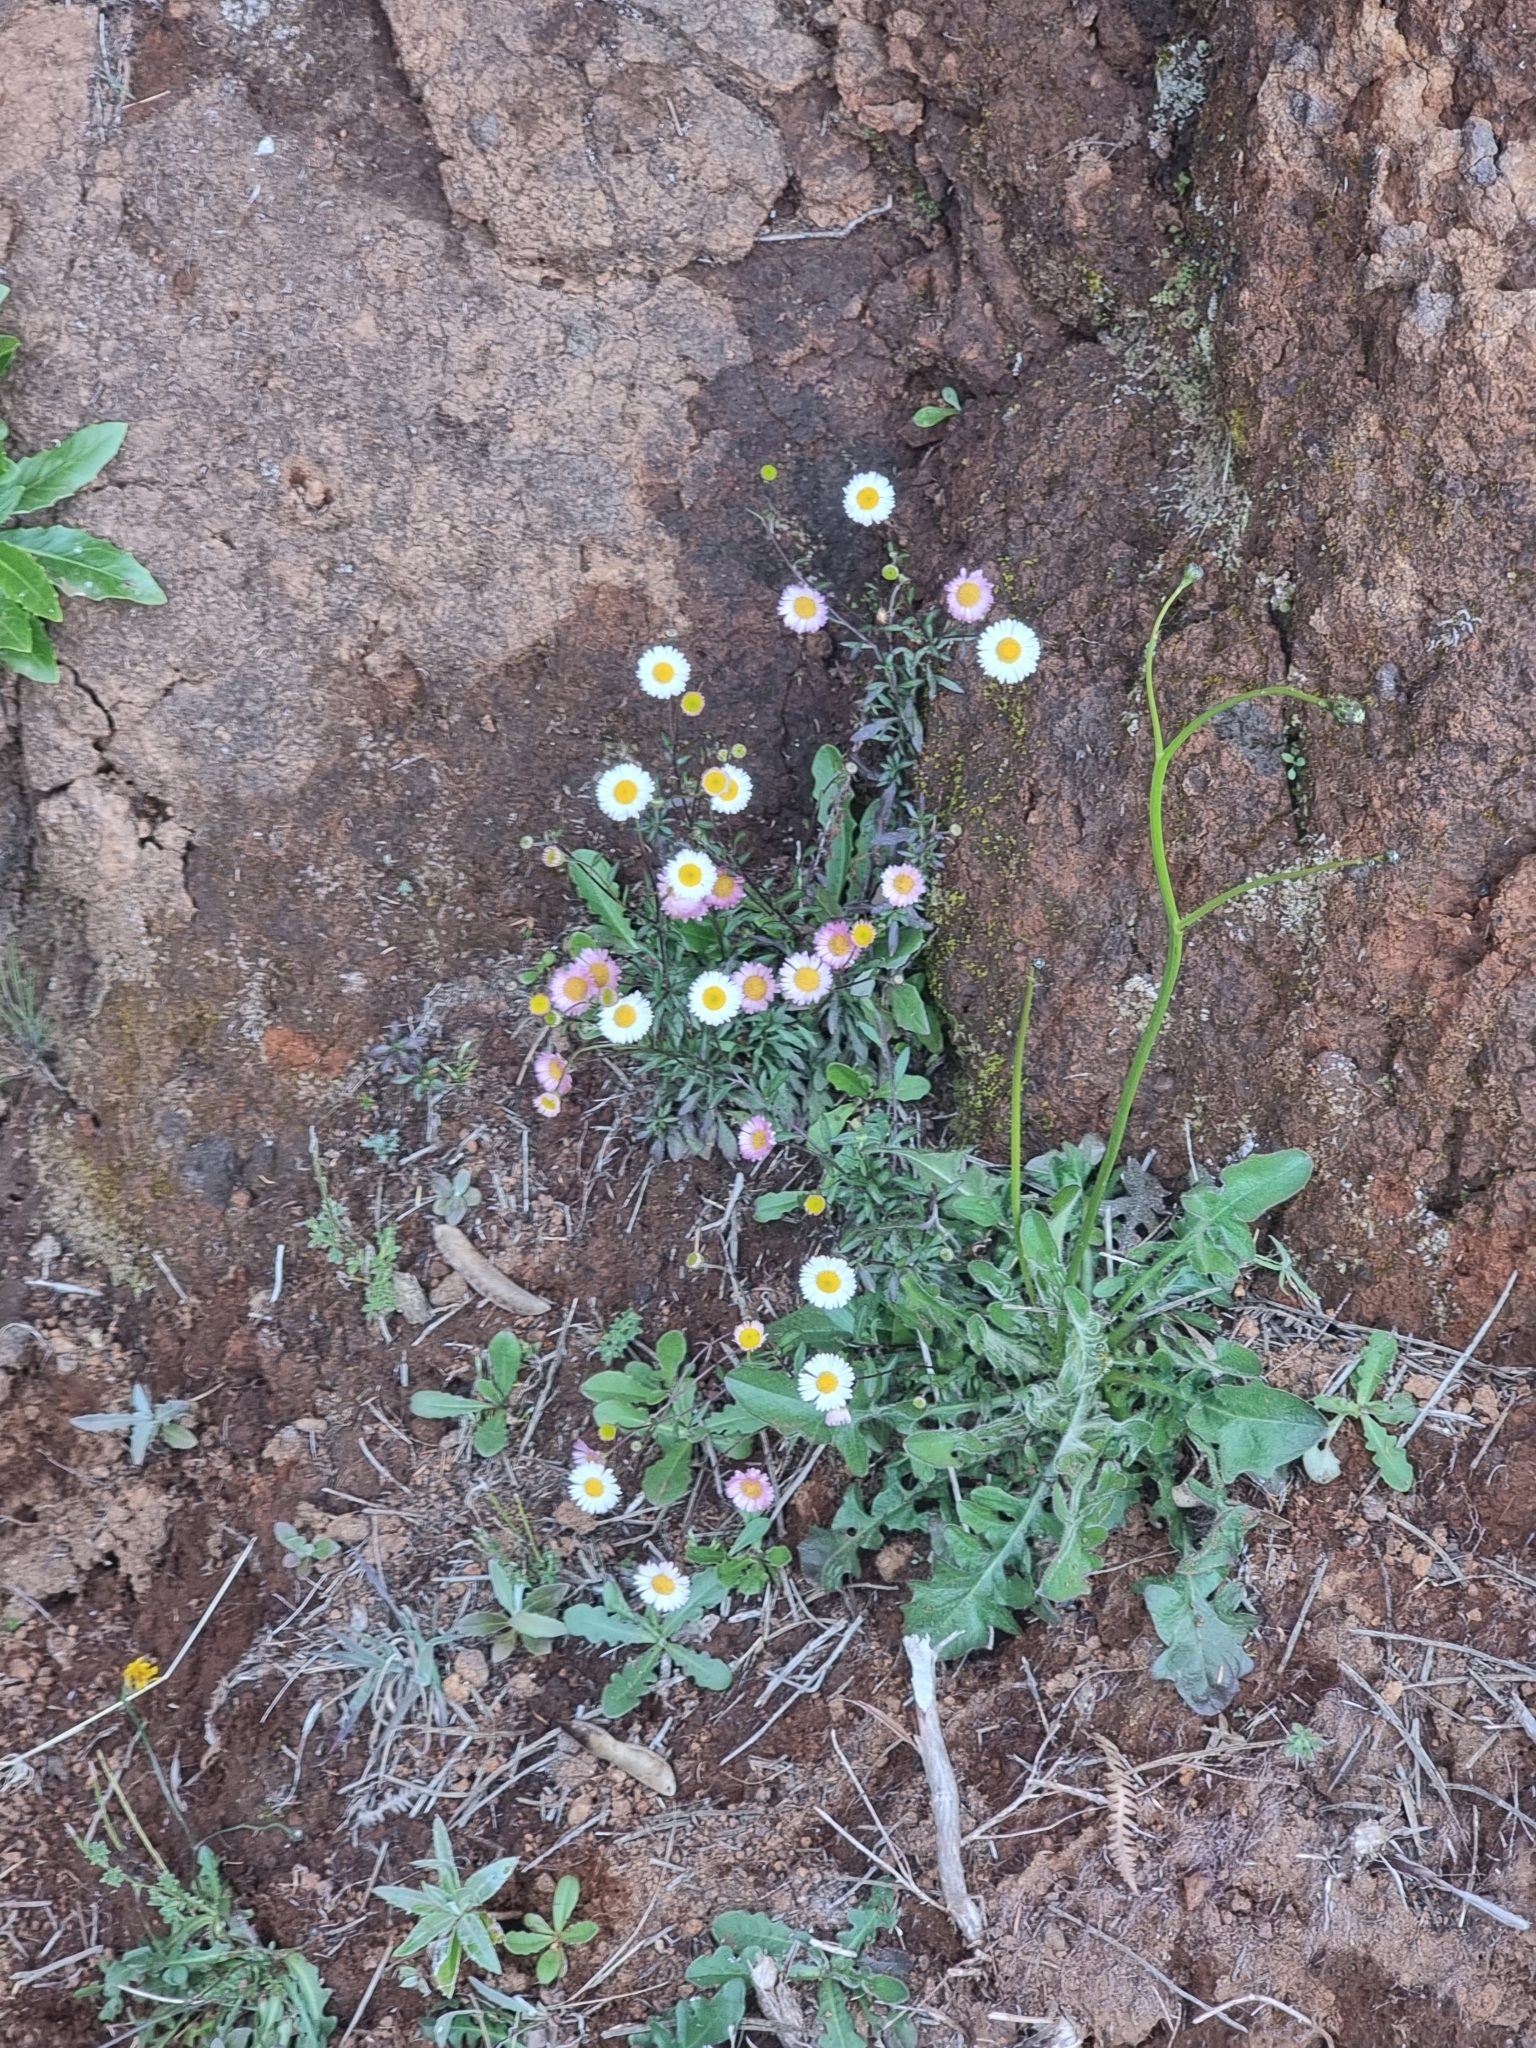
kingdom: Plantae
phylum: Tracheophyta
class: Magnoliopsida
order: Asterales
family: Asteraceae
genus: Erigeron
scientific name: Erigeron karvinskianus
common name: Mexican fleabane
